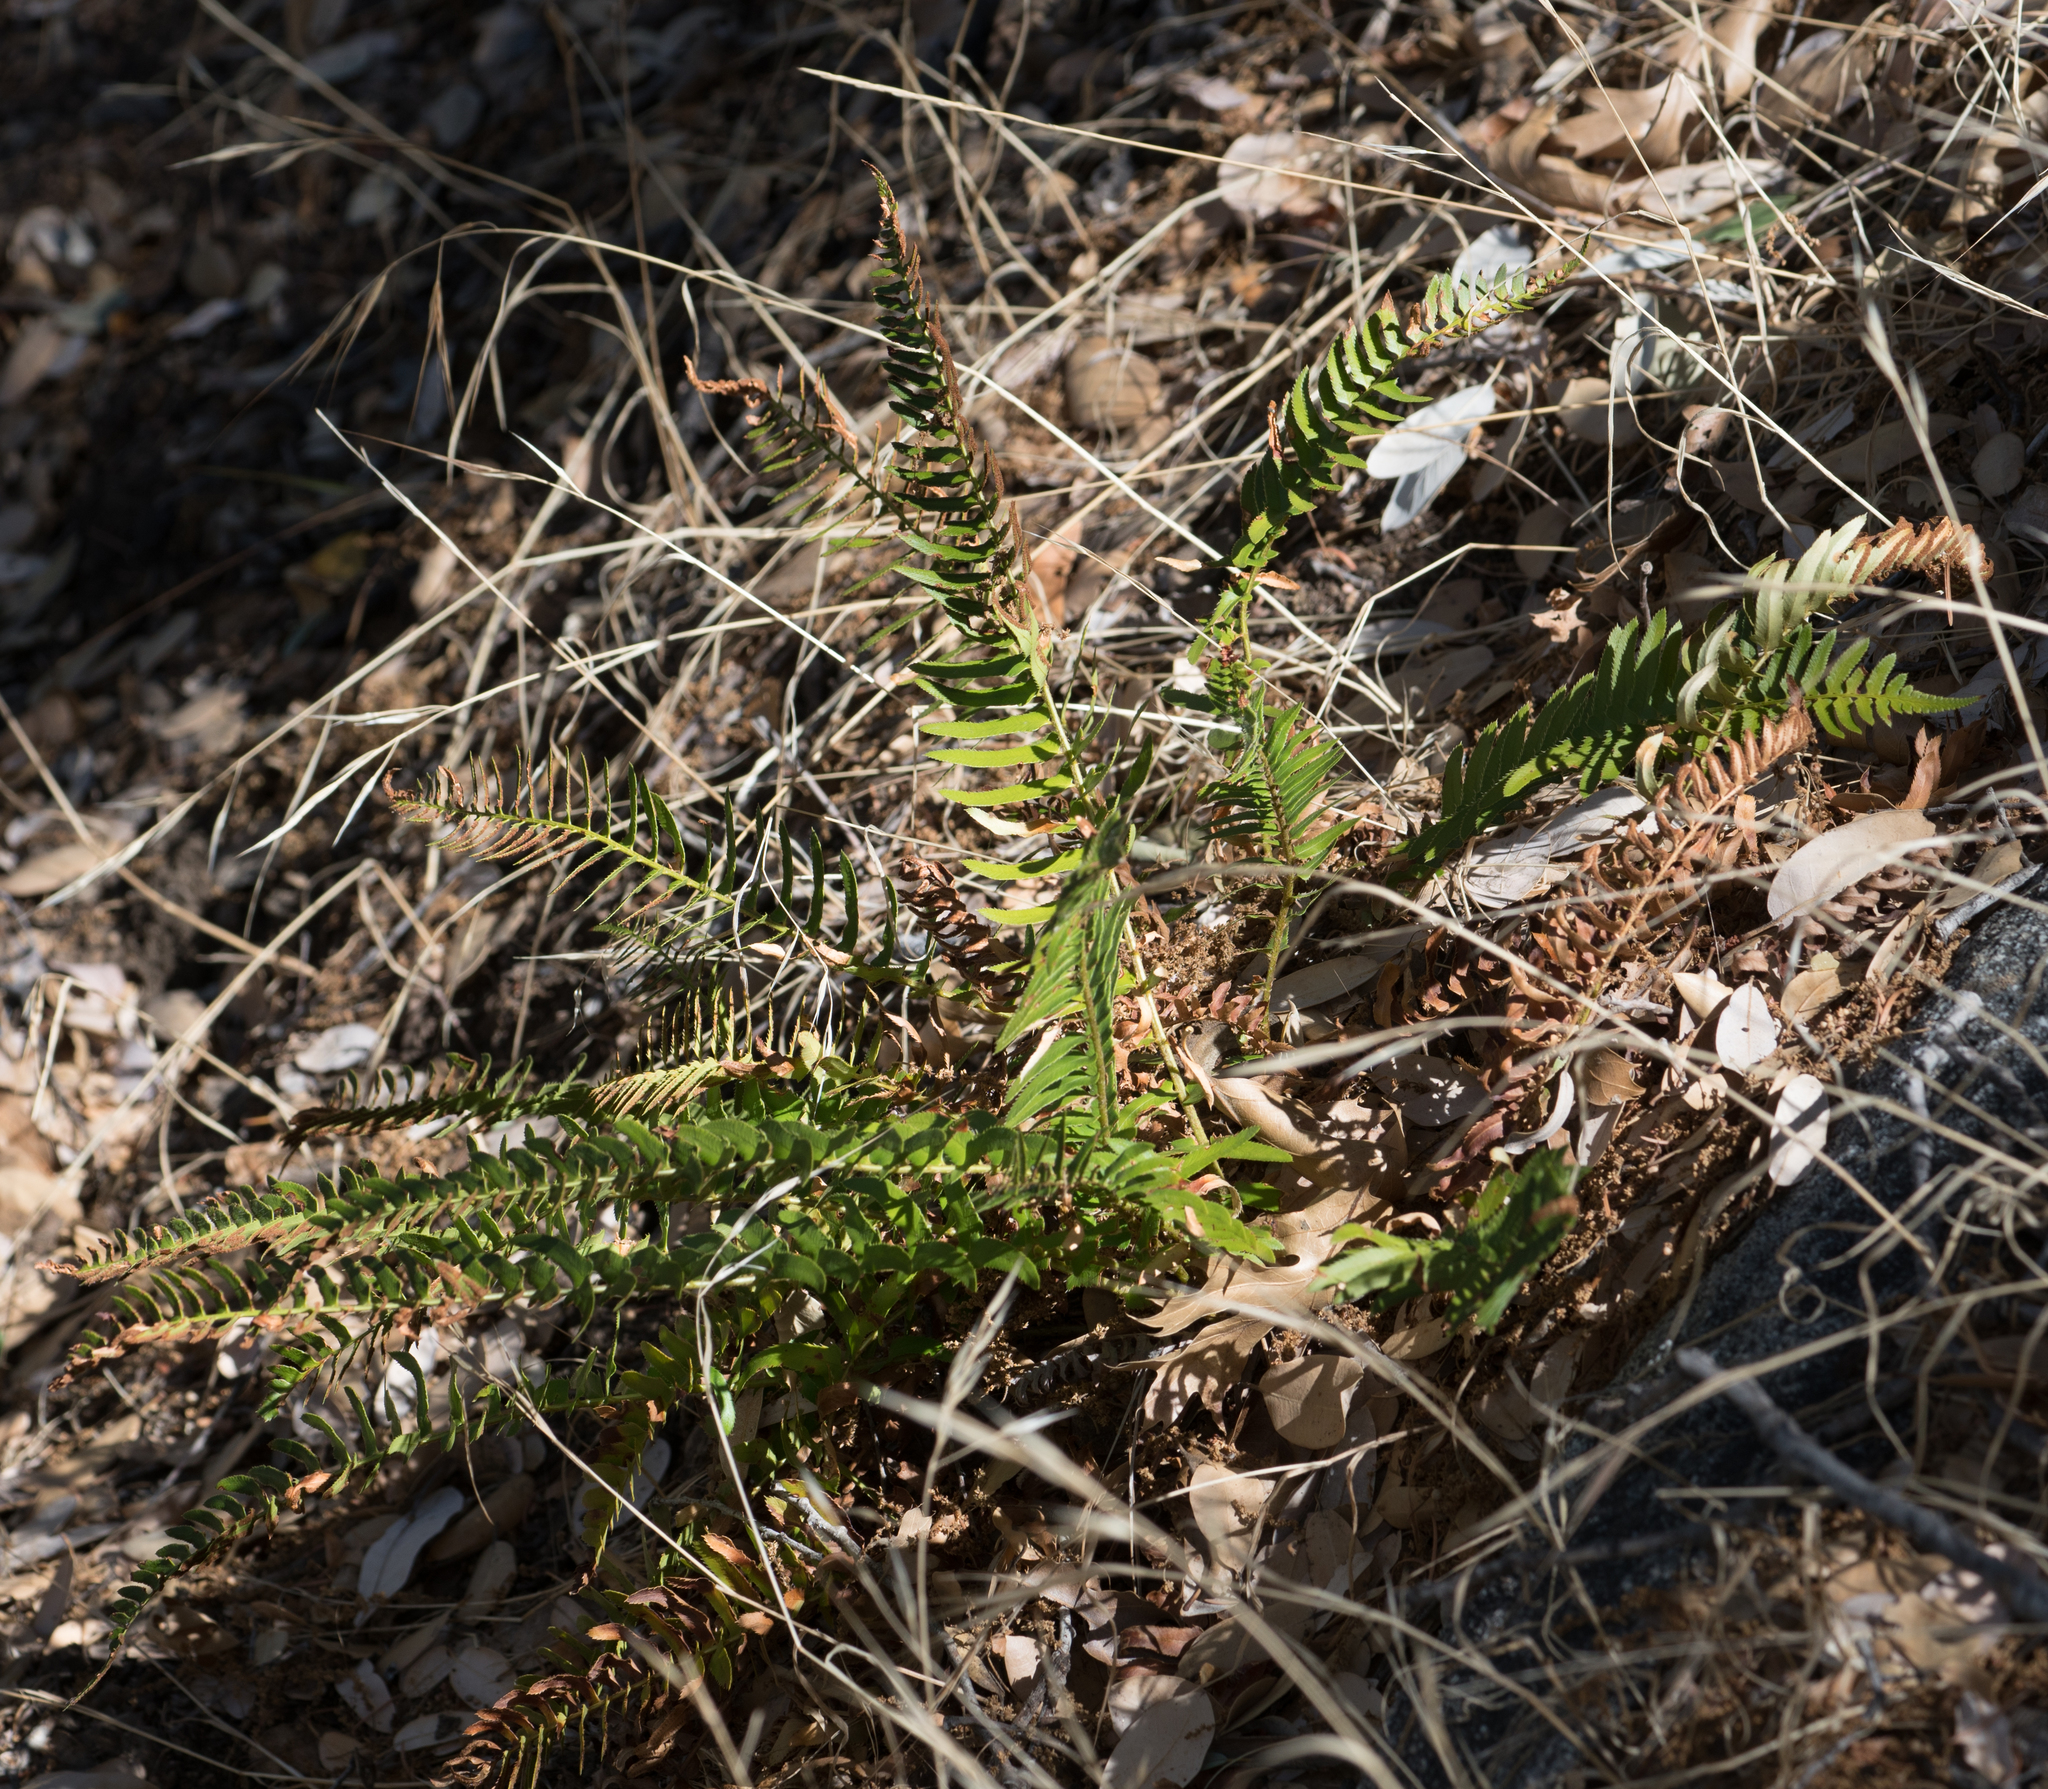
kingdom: Plantae
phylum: Tracheophyta
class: Polypodiopsida
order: Polypodiales
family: Dryopteridaceae
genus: Polystichum
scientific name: Polystichum imbricans
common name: Dwarf western sword fern
